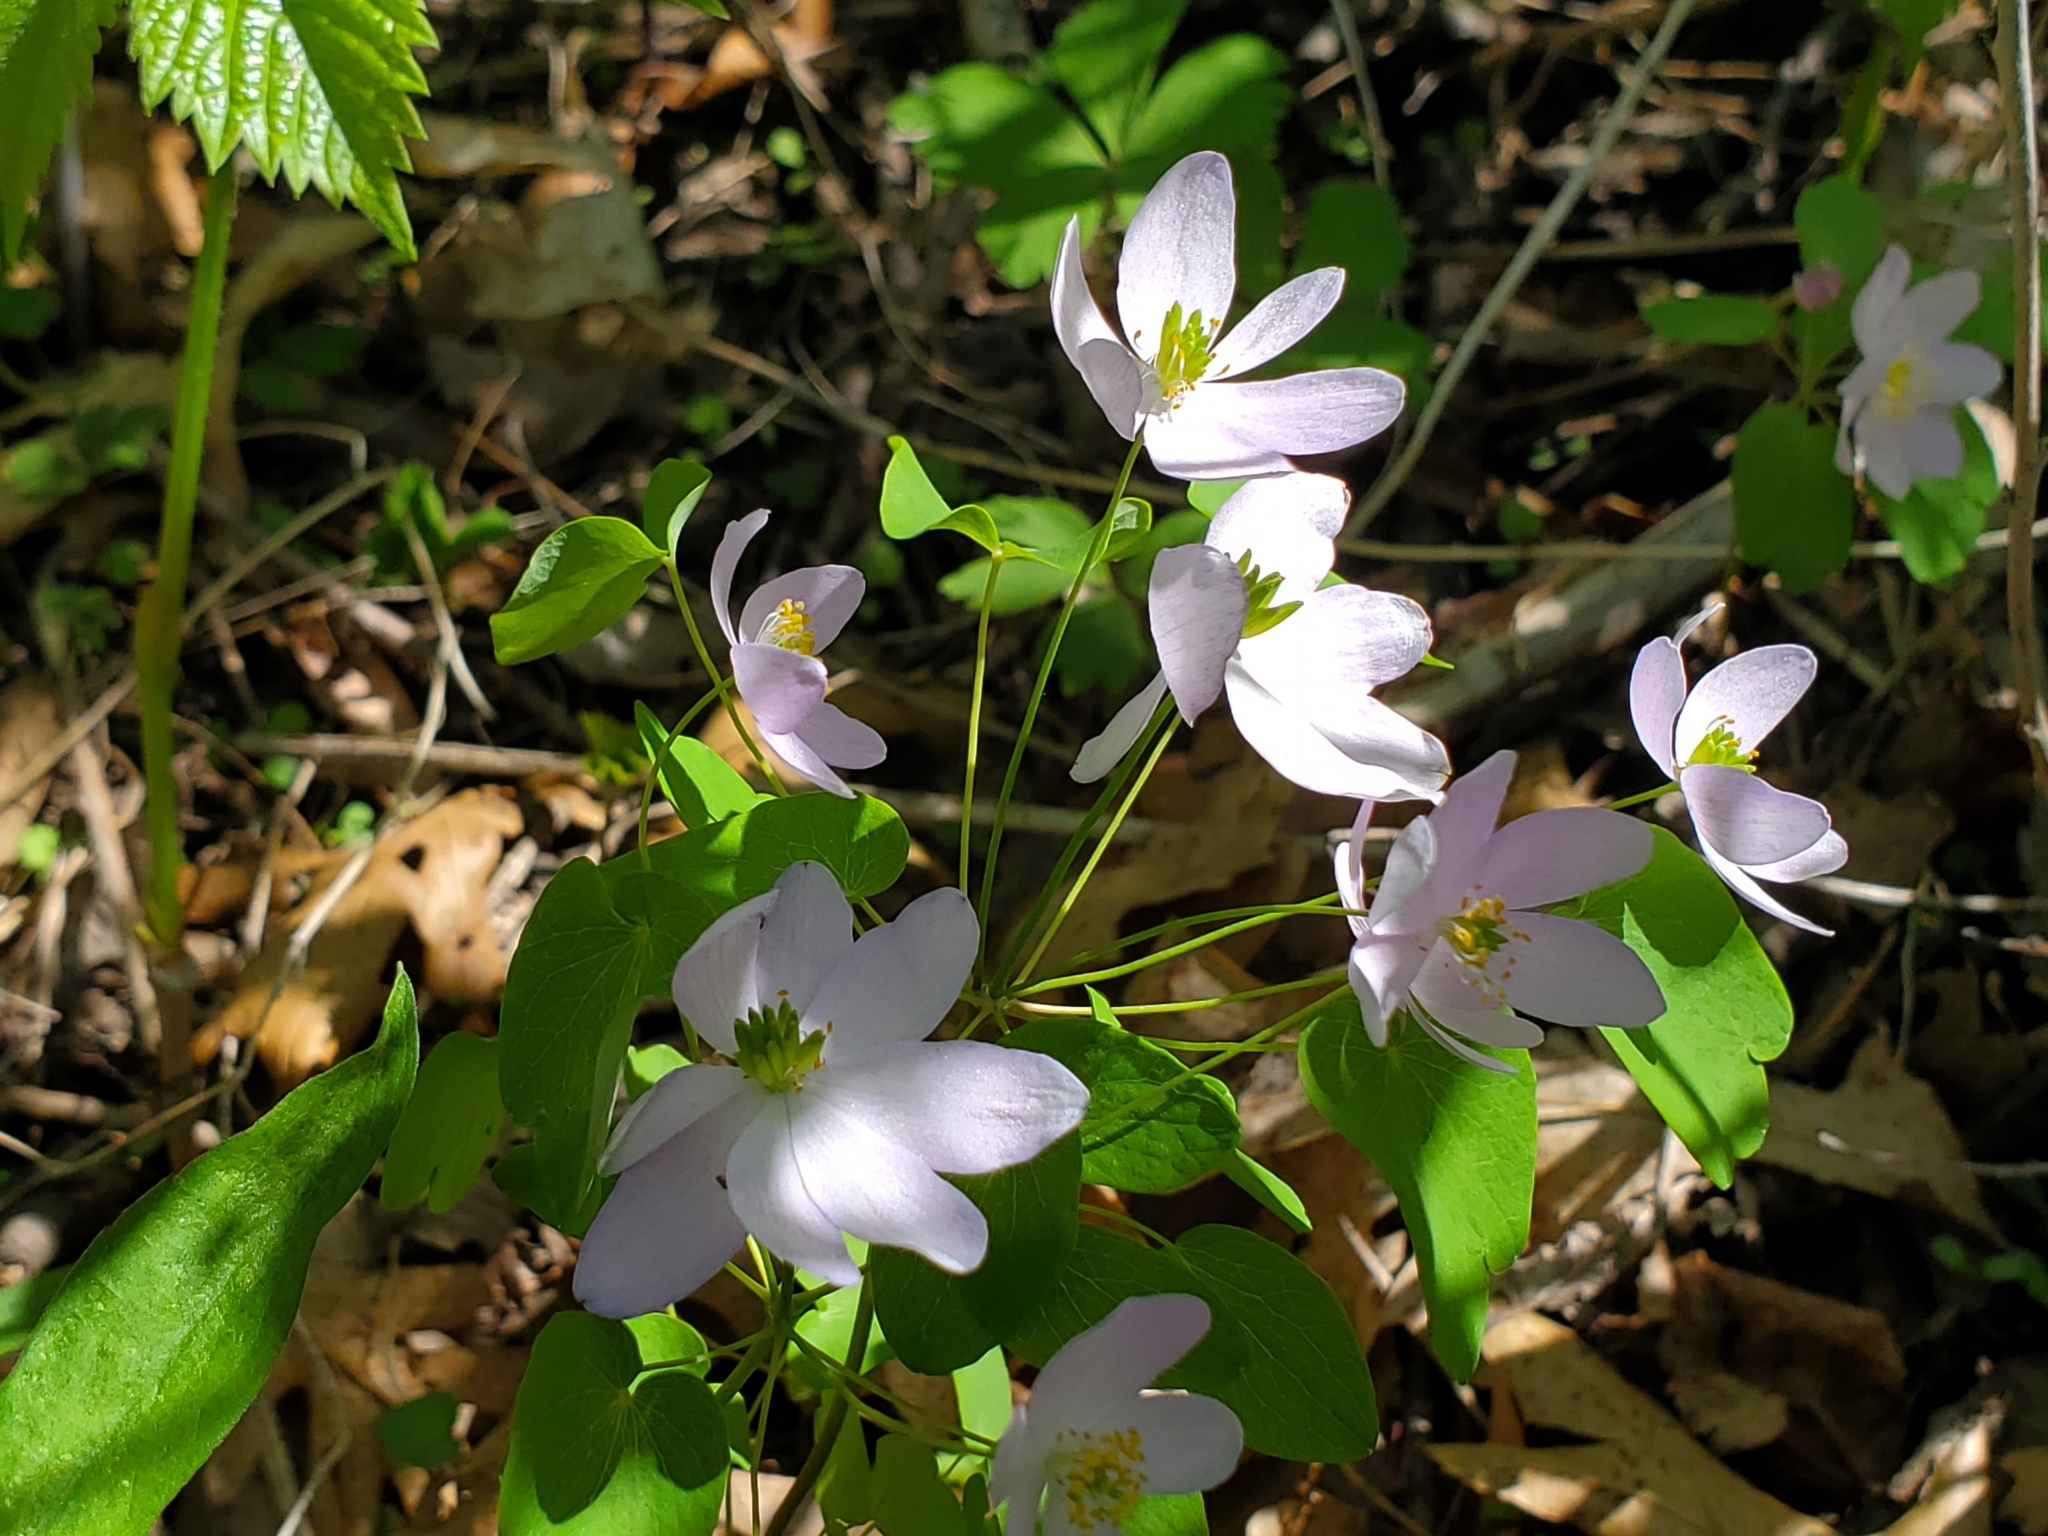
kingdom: Plantae
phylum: Tracheophyta
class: Magnoliopsida
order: Ranunculales
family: Ranunculaceae
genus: Thalictrum
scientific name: Thalictrum thalictroides
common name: Rue-anemone
